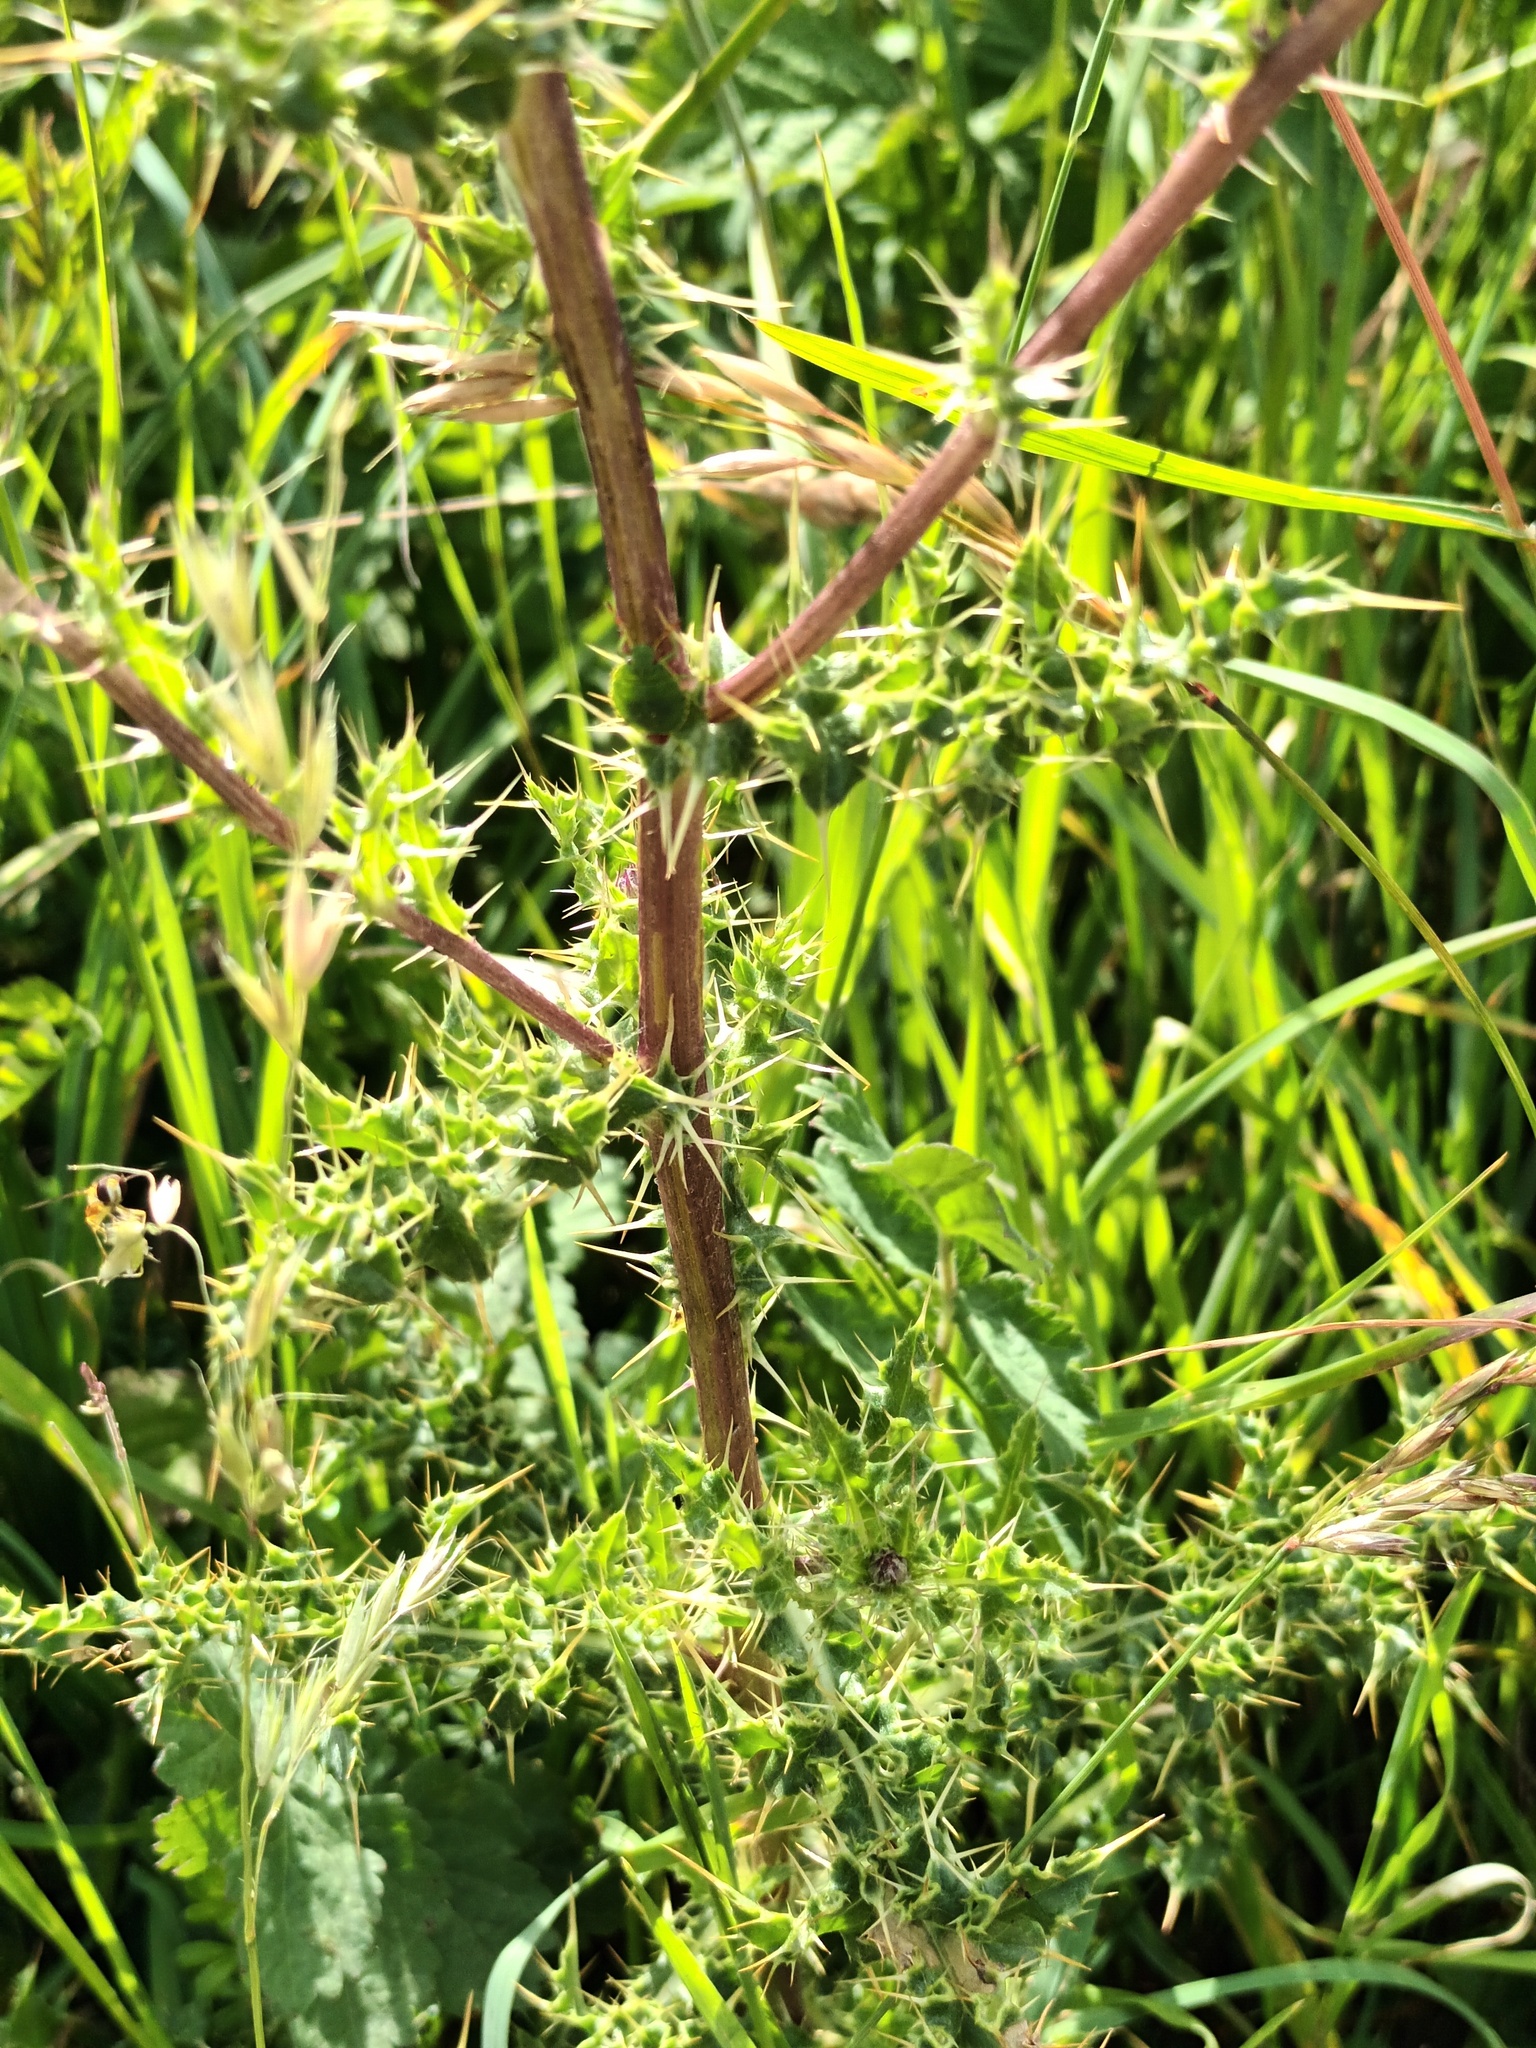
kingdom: Plantae
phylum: Tracheophyta
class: Magnoliopsida
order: Asterales
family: Asteraceae
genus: Cirsium
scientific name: Cirsium arvense
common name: Creeping thistle
